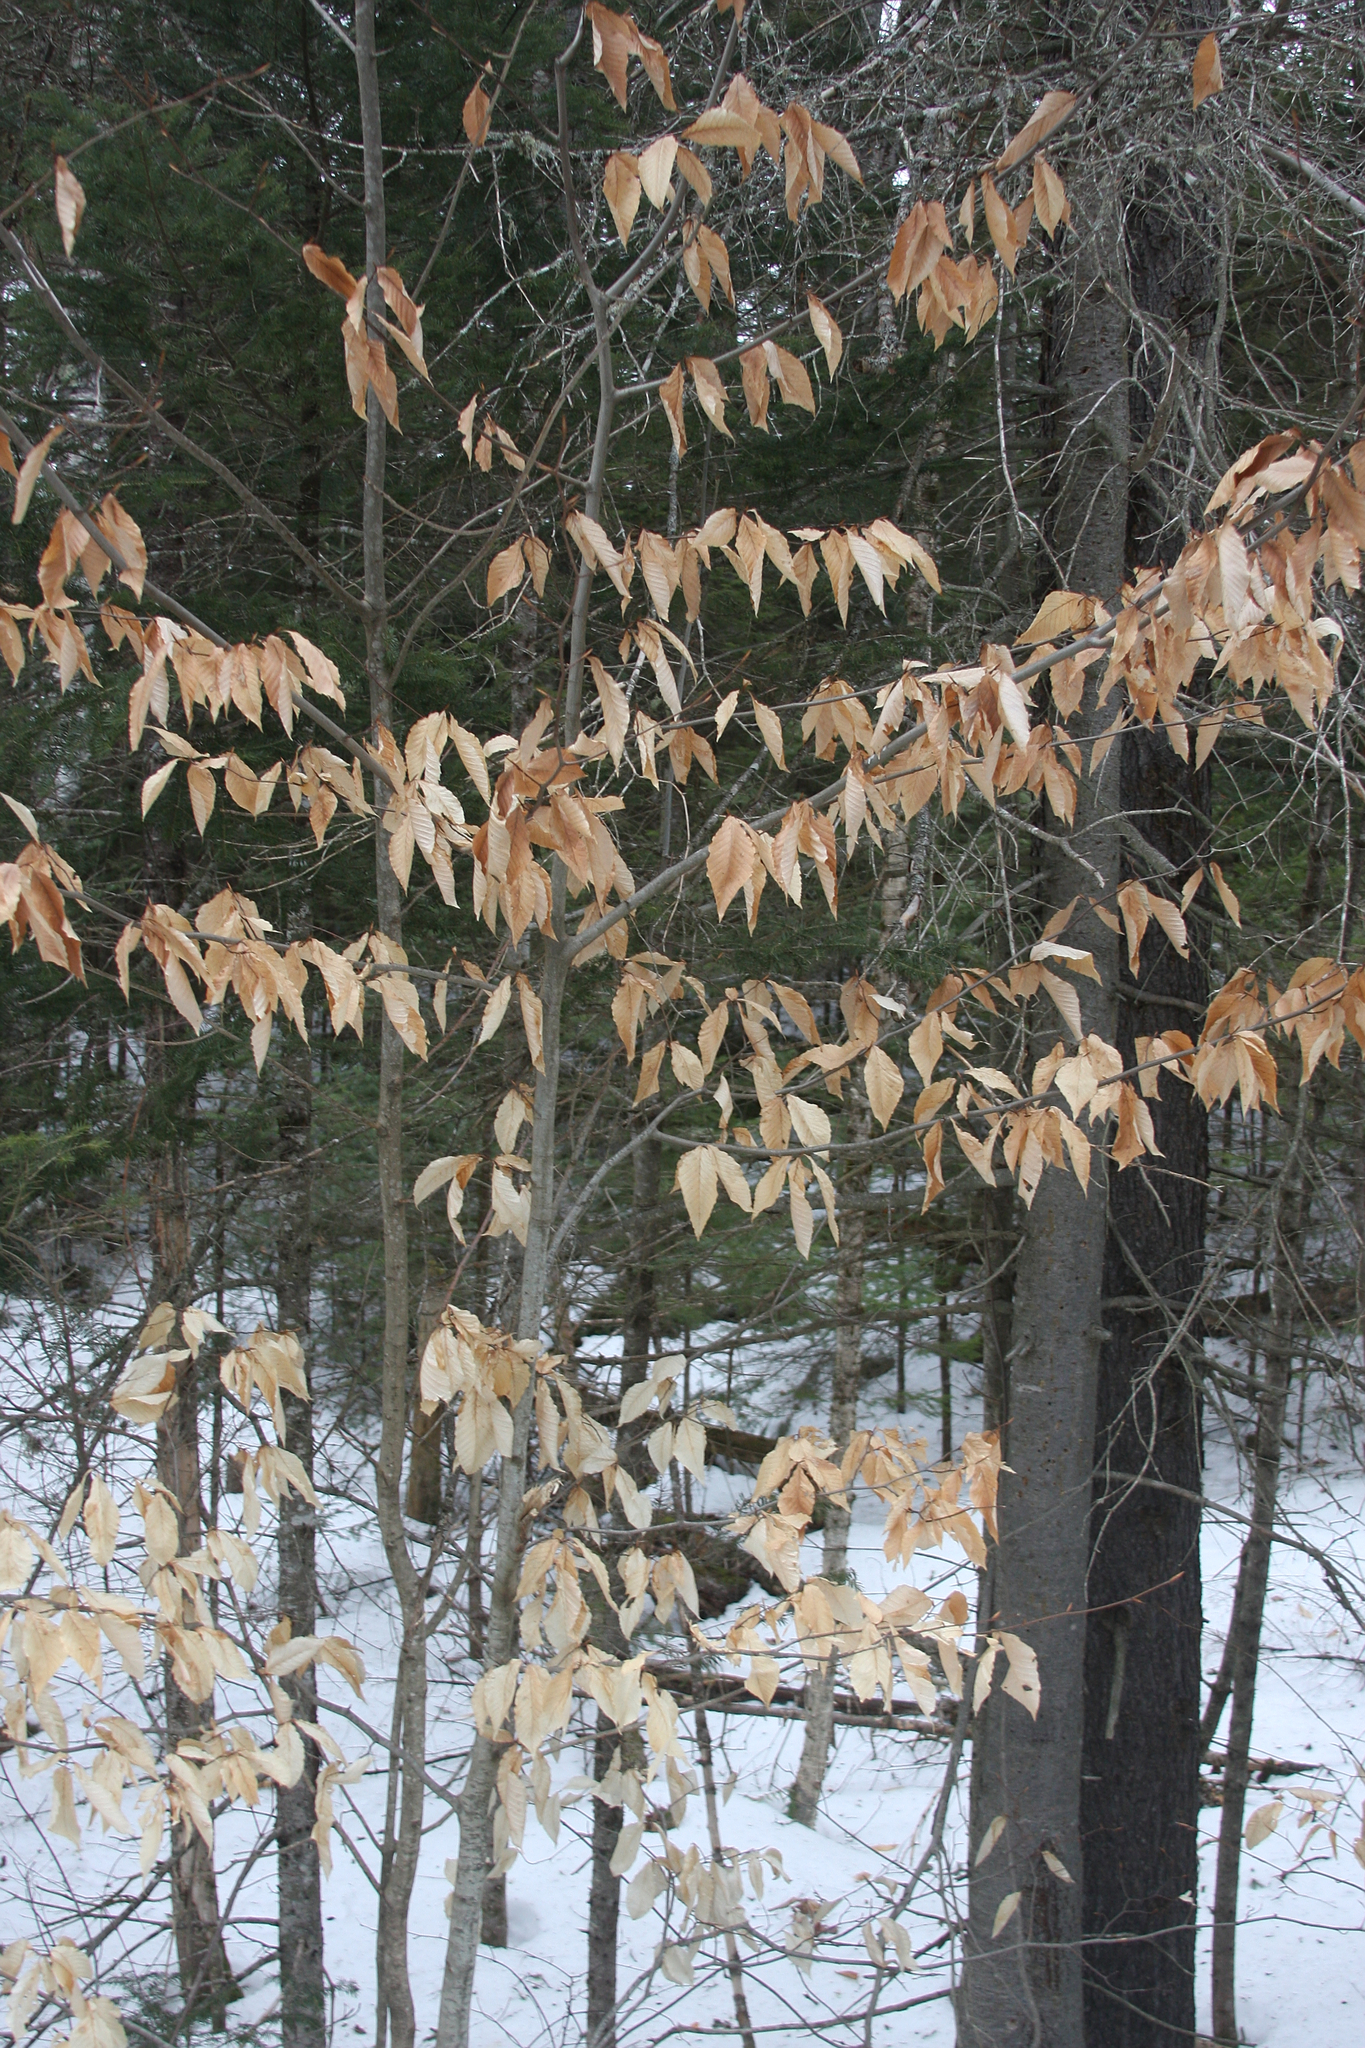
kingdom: Plantae
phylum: Tracheophyta
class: Magnoliopsida
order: Fagales
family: Fagaceae
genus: Fagus
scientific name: Fagus grandifolia
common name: American beech
